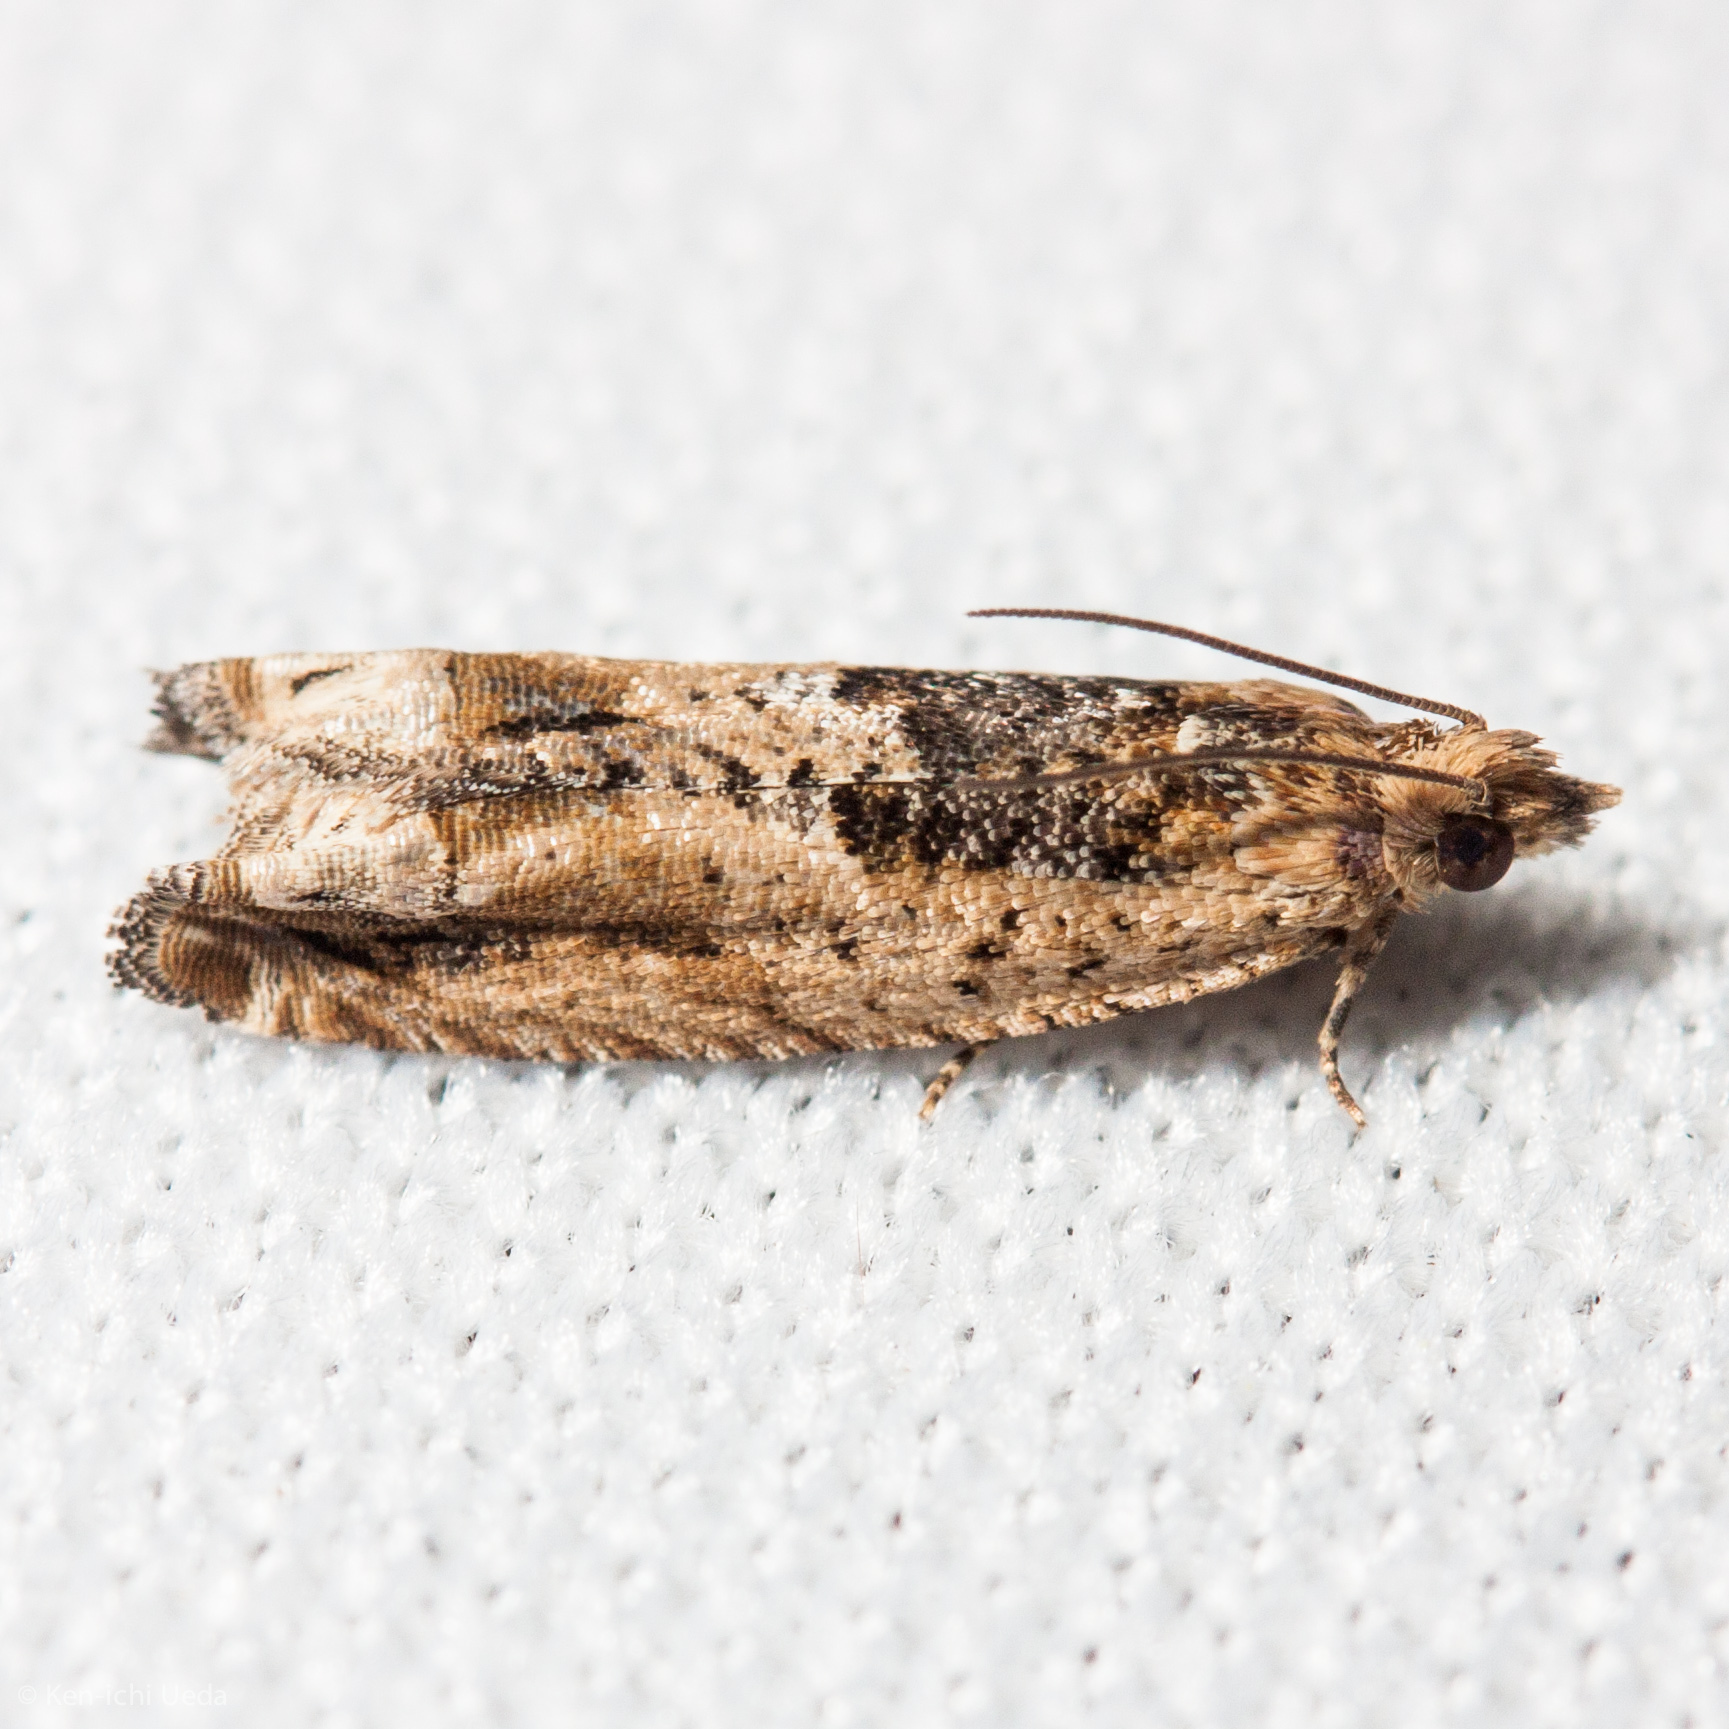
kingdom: Animalia
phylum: Arthropoda
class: Insecta
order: Lepidoptera
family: Tortricidae
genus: Crocidosema
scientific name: Crocidosema plebejana
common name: Southern bell
